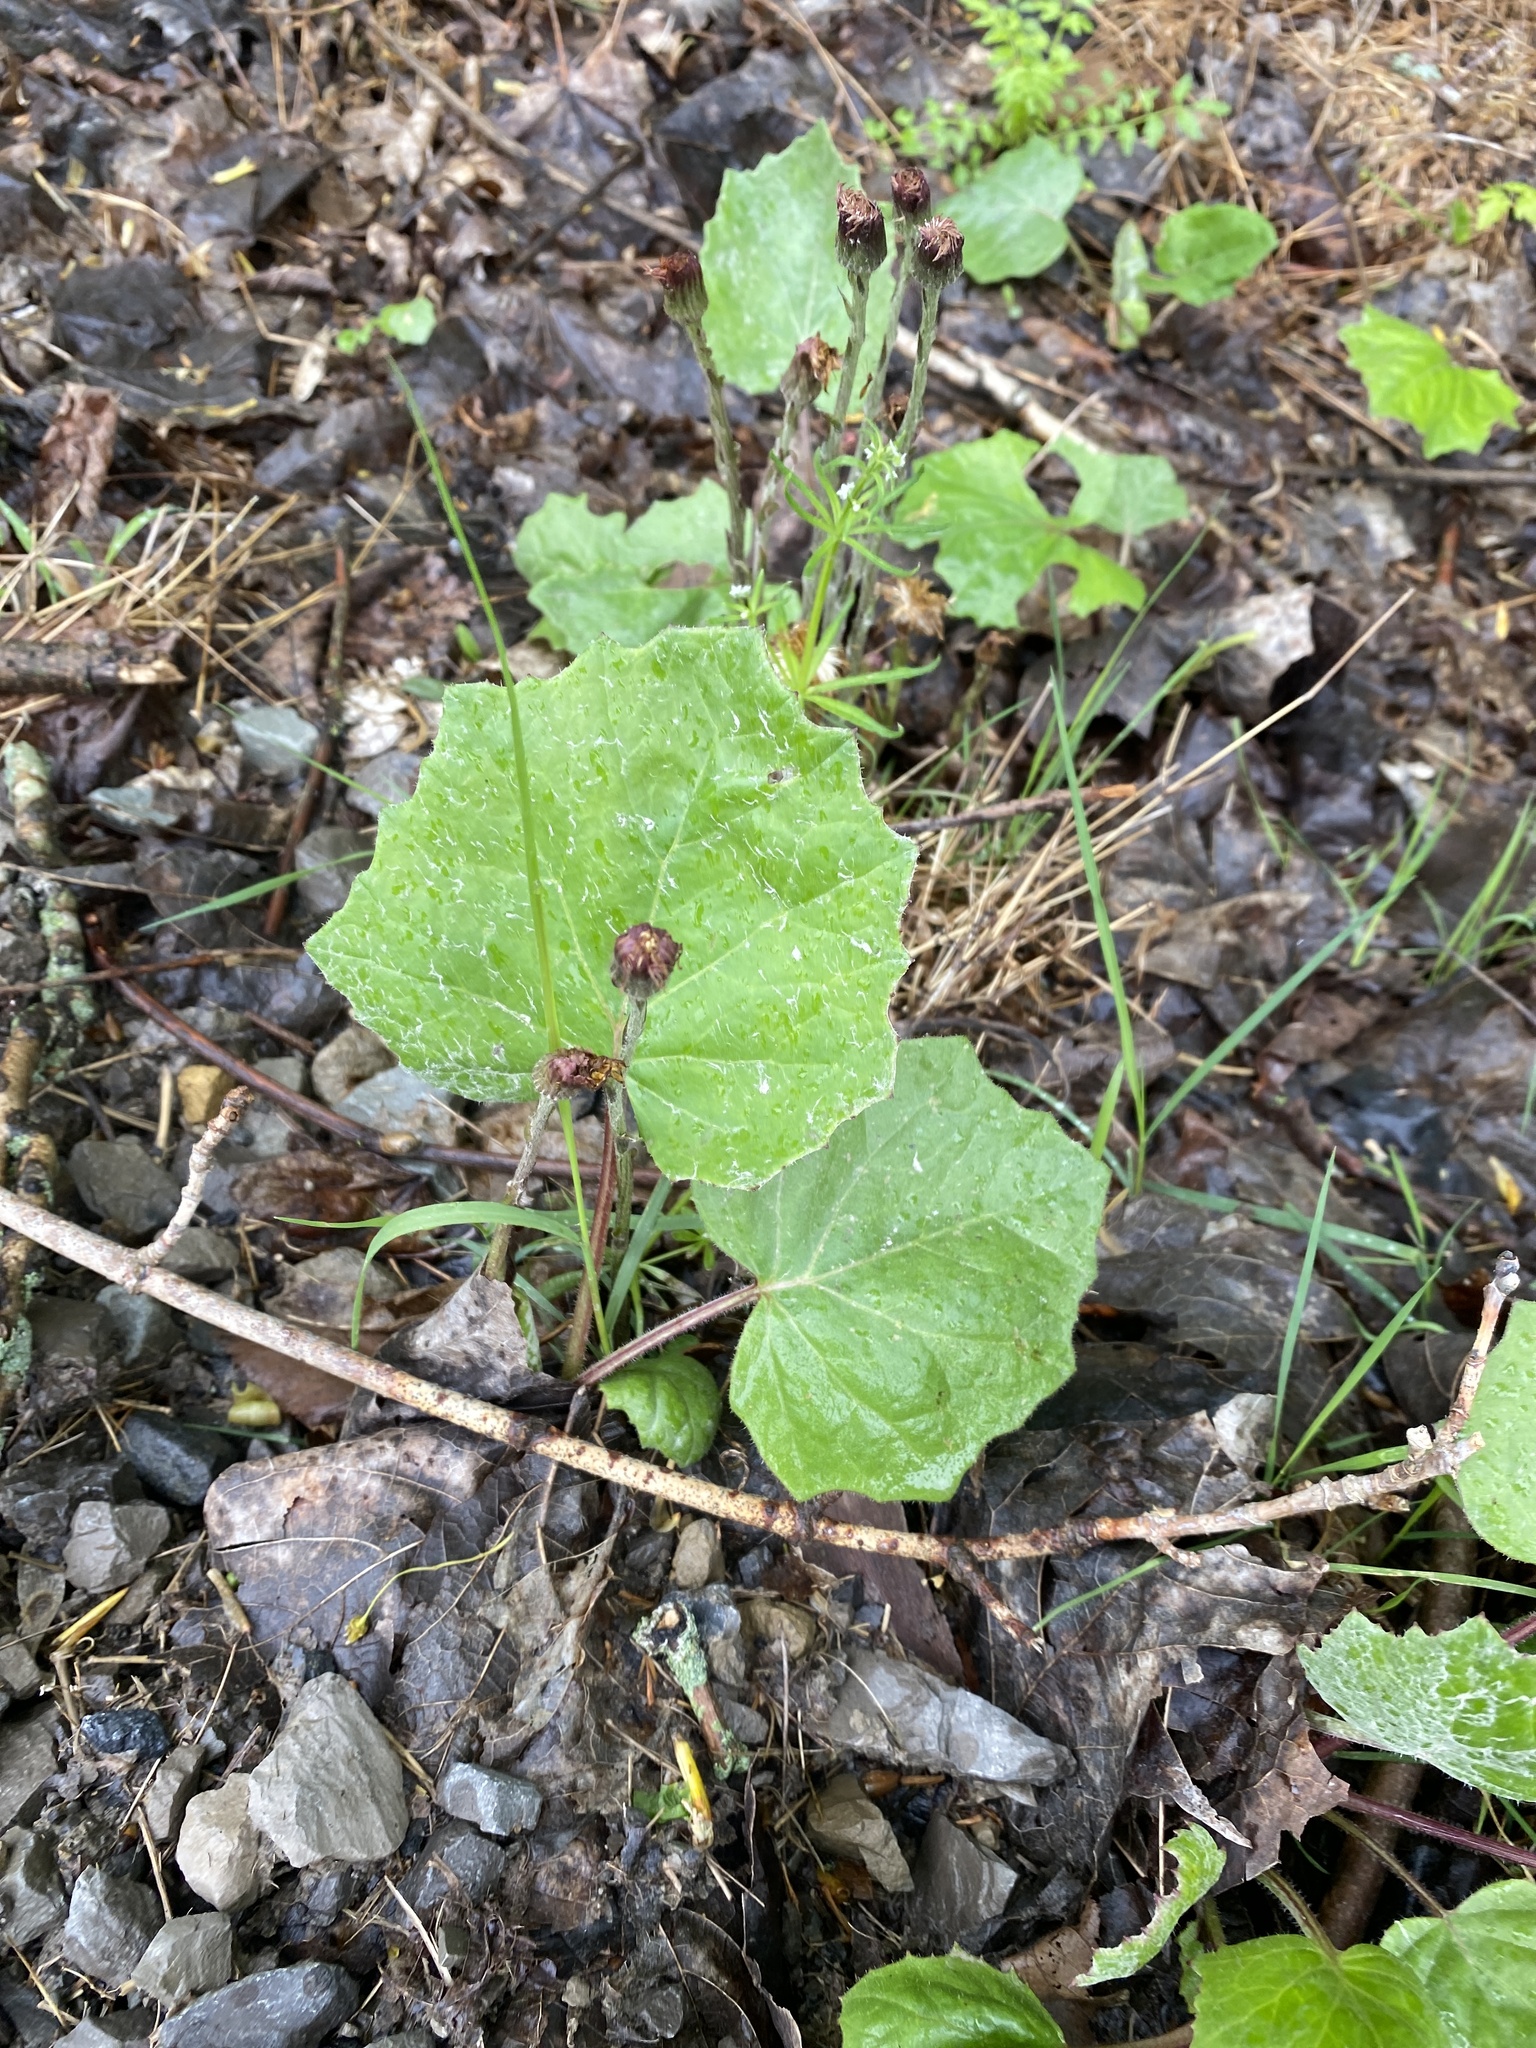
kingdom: Plantae
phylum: Tracheophyta
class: Magnoliopsida
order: Asterales
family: Asteraceae
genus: Tussilago
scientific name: Tussilago farfara
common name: Coltsfoot
